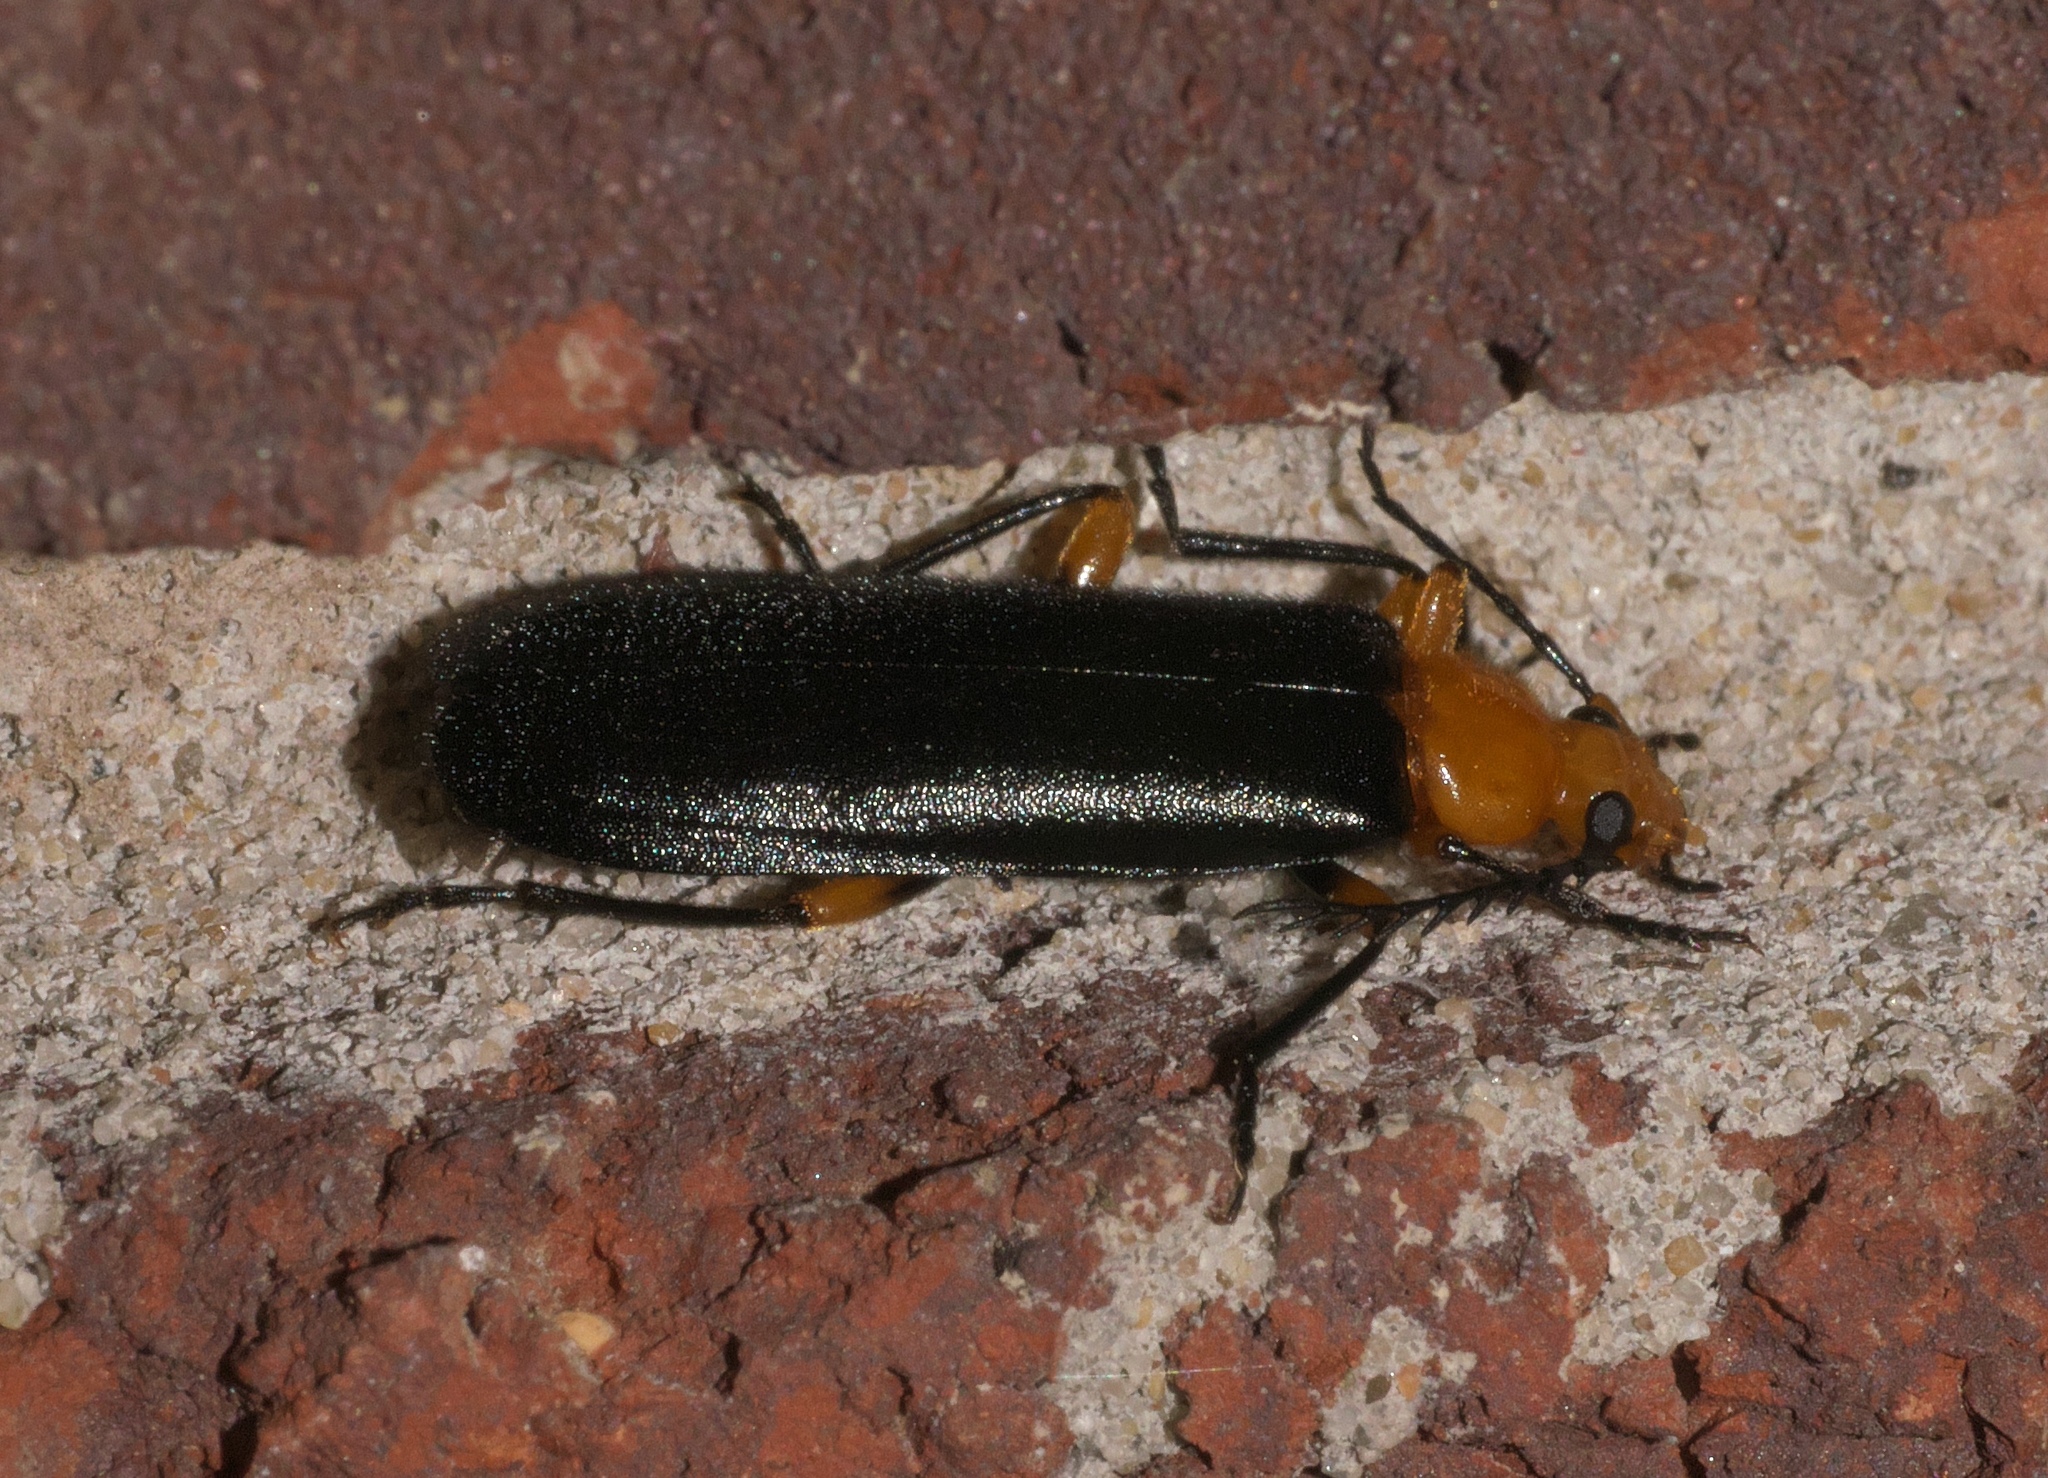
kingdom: Animalia
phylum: Arthropoda
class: Insecta
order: Coleoptera
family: Pyrochroidae
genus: Neopyrochroa
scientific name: Neopyrochroa femoralis
